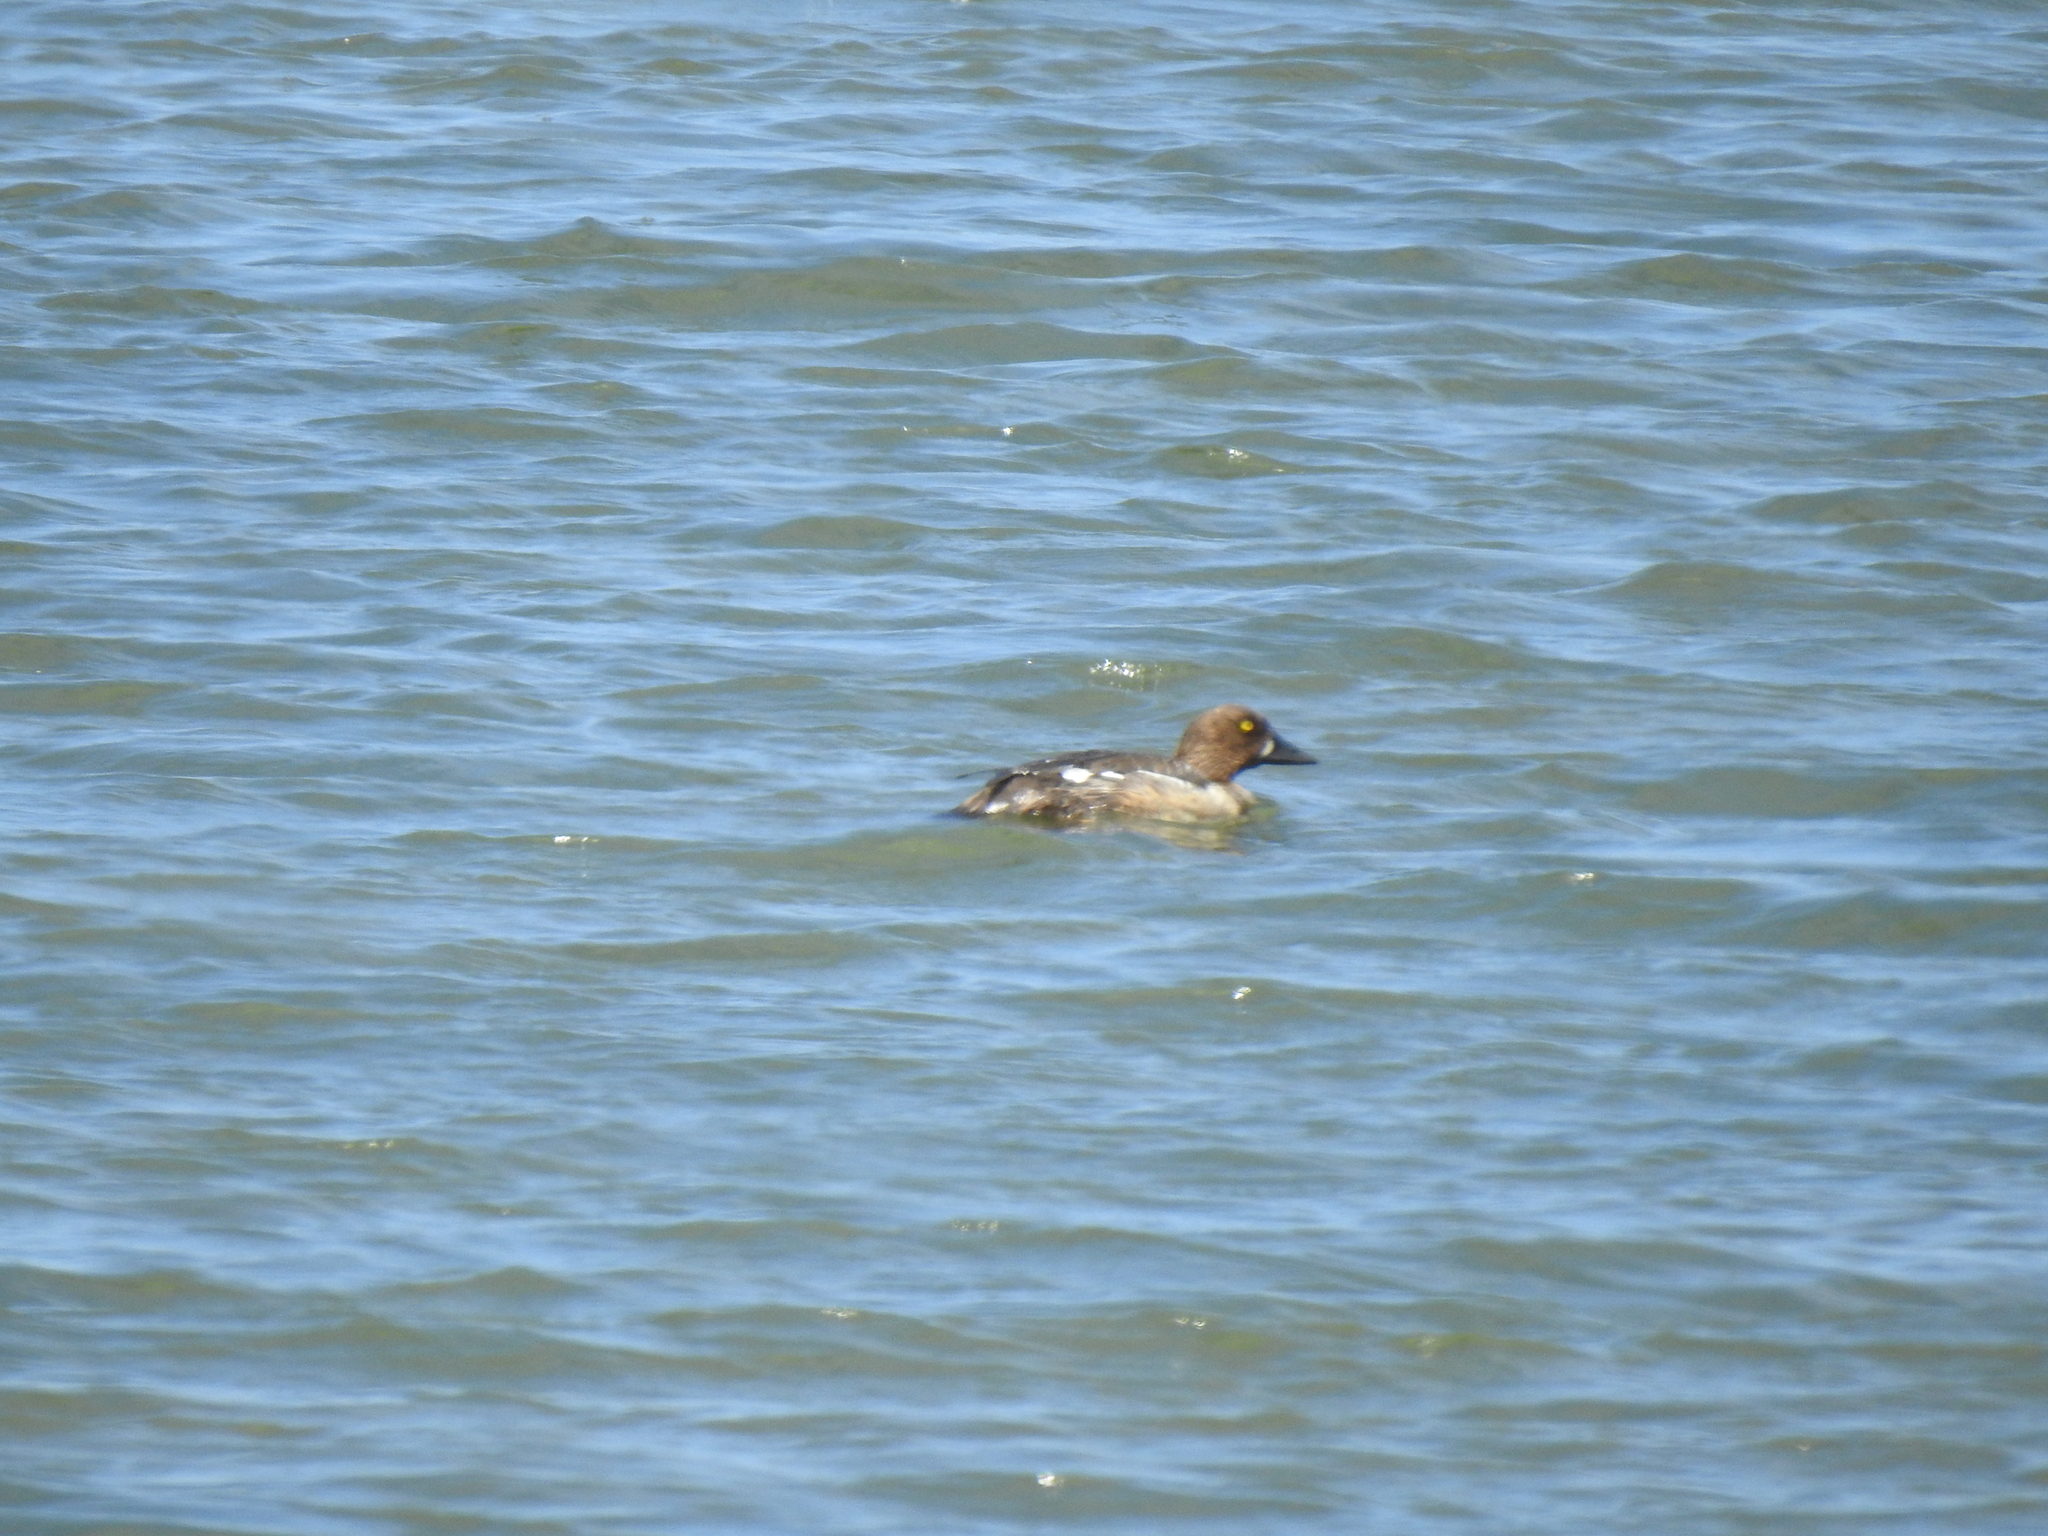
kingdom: Animalia
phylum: Chordata
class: Aves
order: Anseriformes
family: Anatidae
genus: Bucephala
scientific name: Bucephala clangula
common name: Common goldeneye
